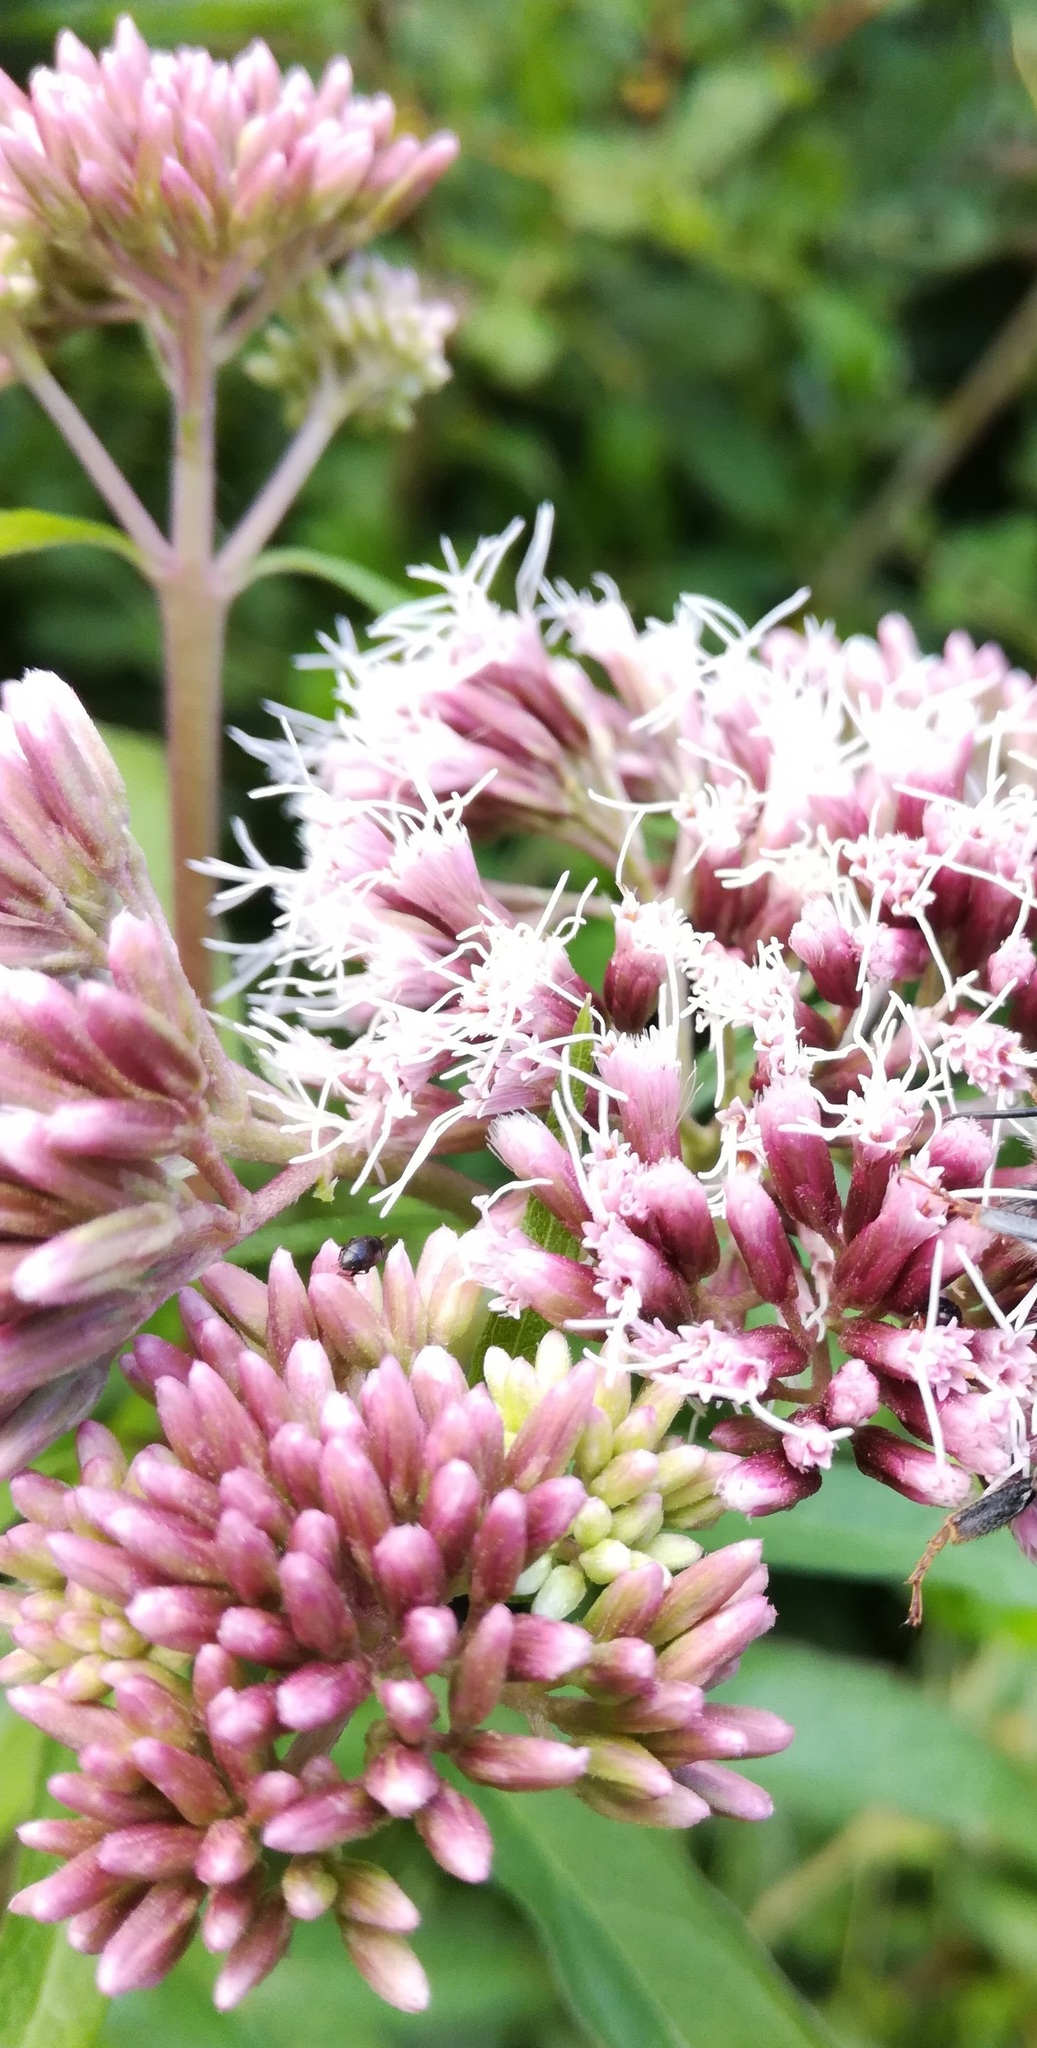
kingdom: Plantae
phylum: Tracheophyta
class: Magnoliopsida
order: Asterales
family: Asteraceae
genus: Eupatorium
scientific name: Eupatorium cannabinum
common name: Hemp-agrimony
